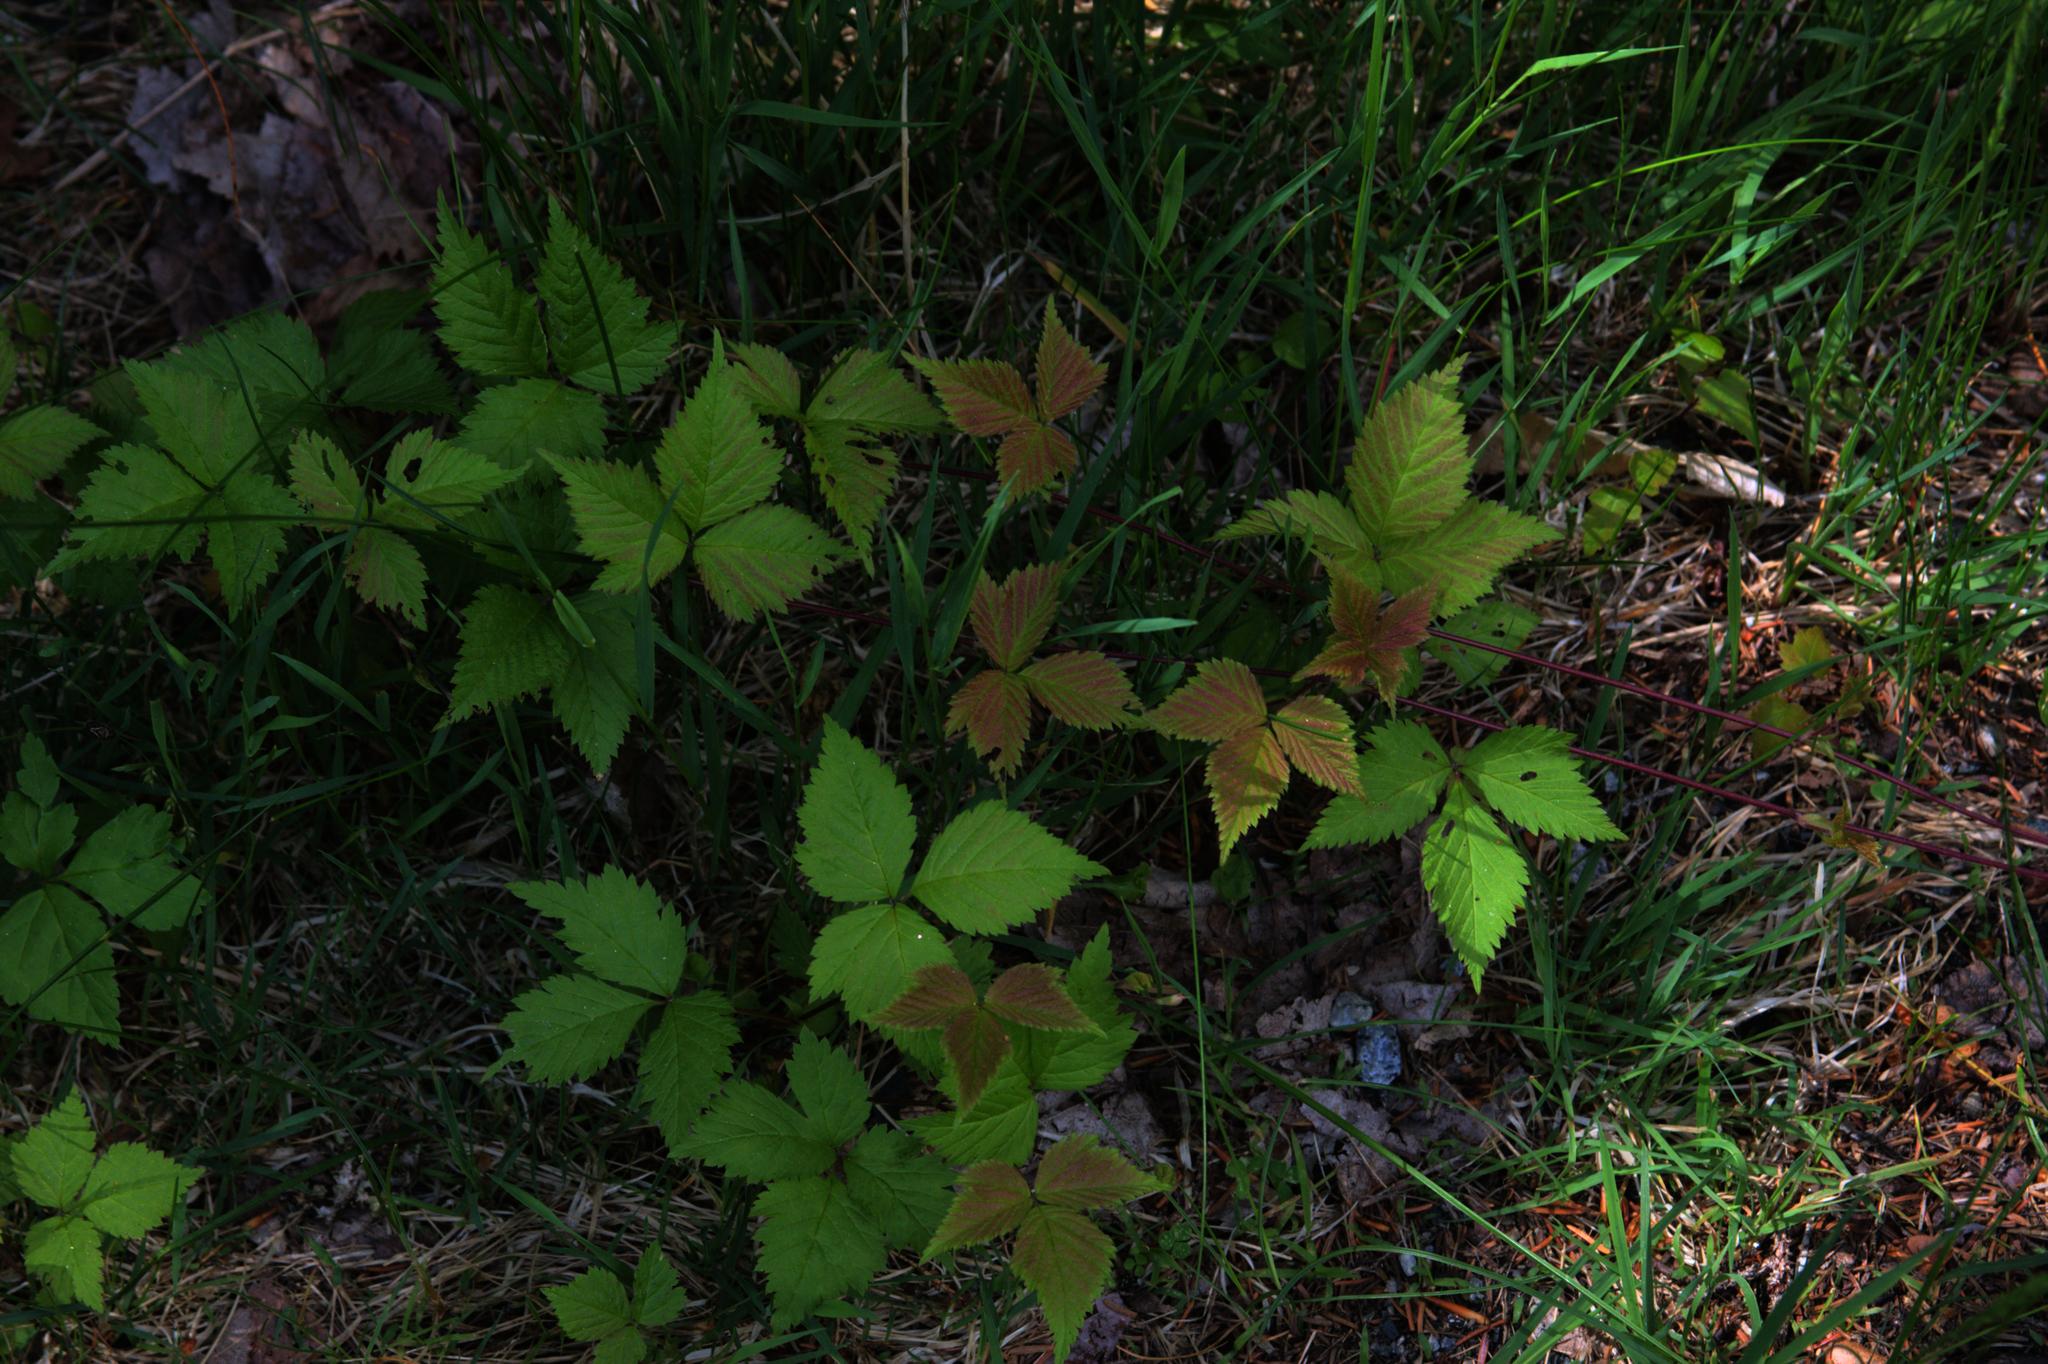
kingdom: Plantae
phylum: Tracheophyta
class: Magnoliopsida
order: Rosales
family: Rosaceae
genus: Rubus
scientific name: Rubus pubescens
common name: Dwarf raspberry
